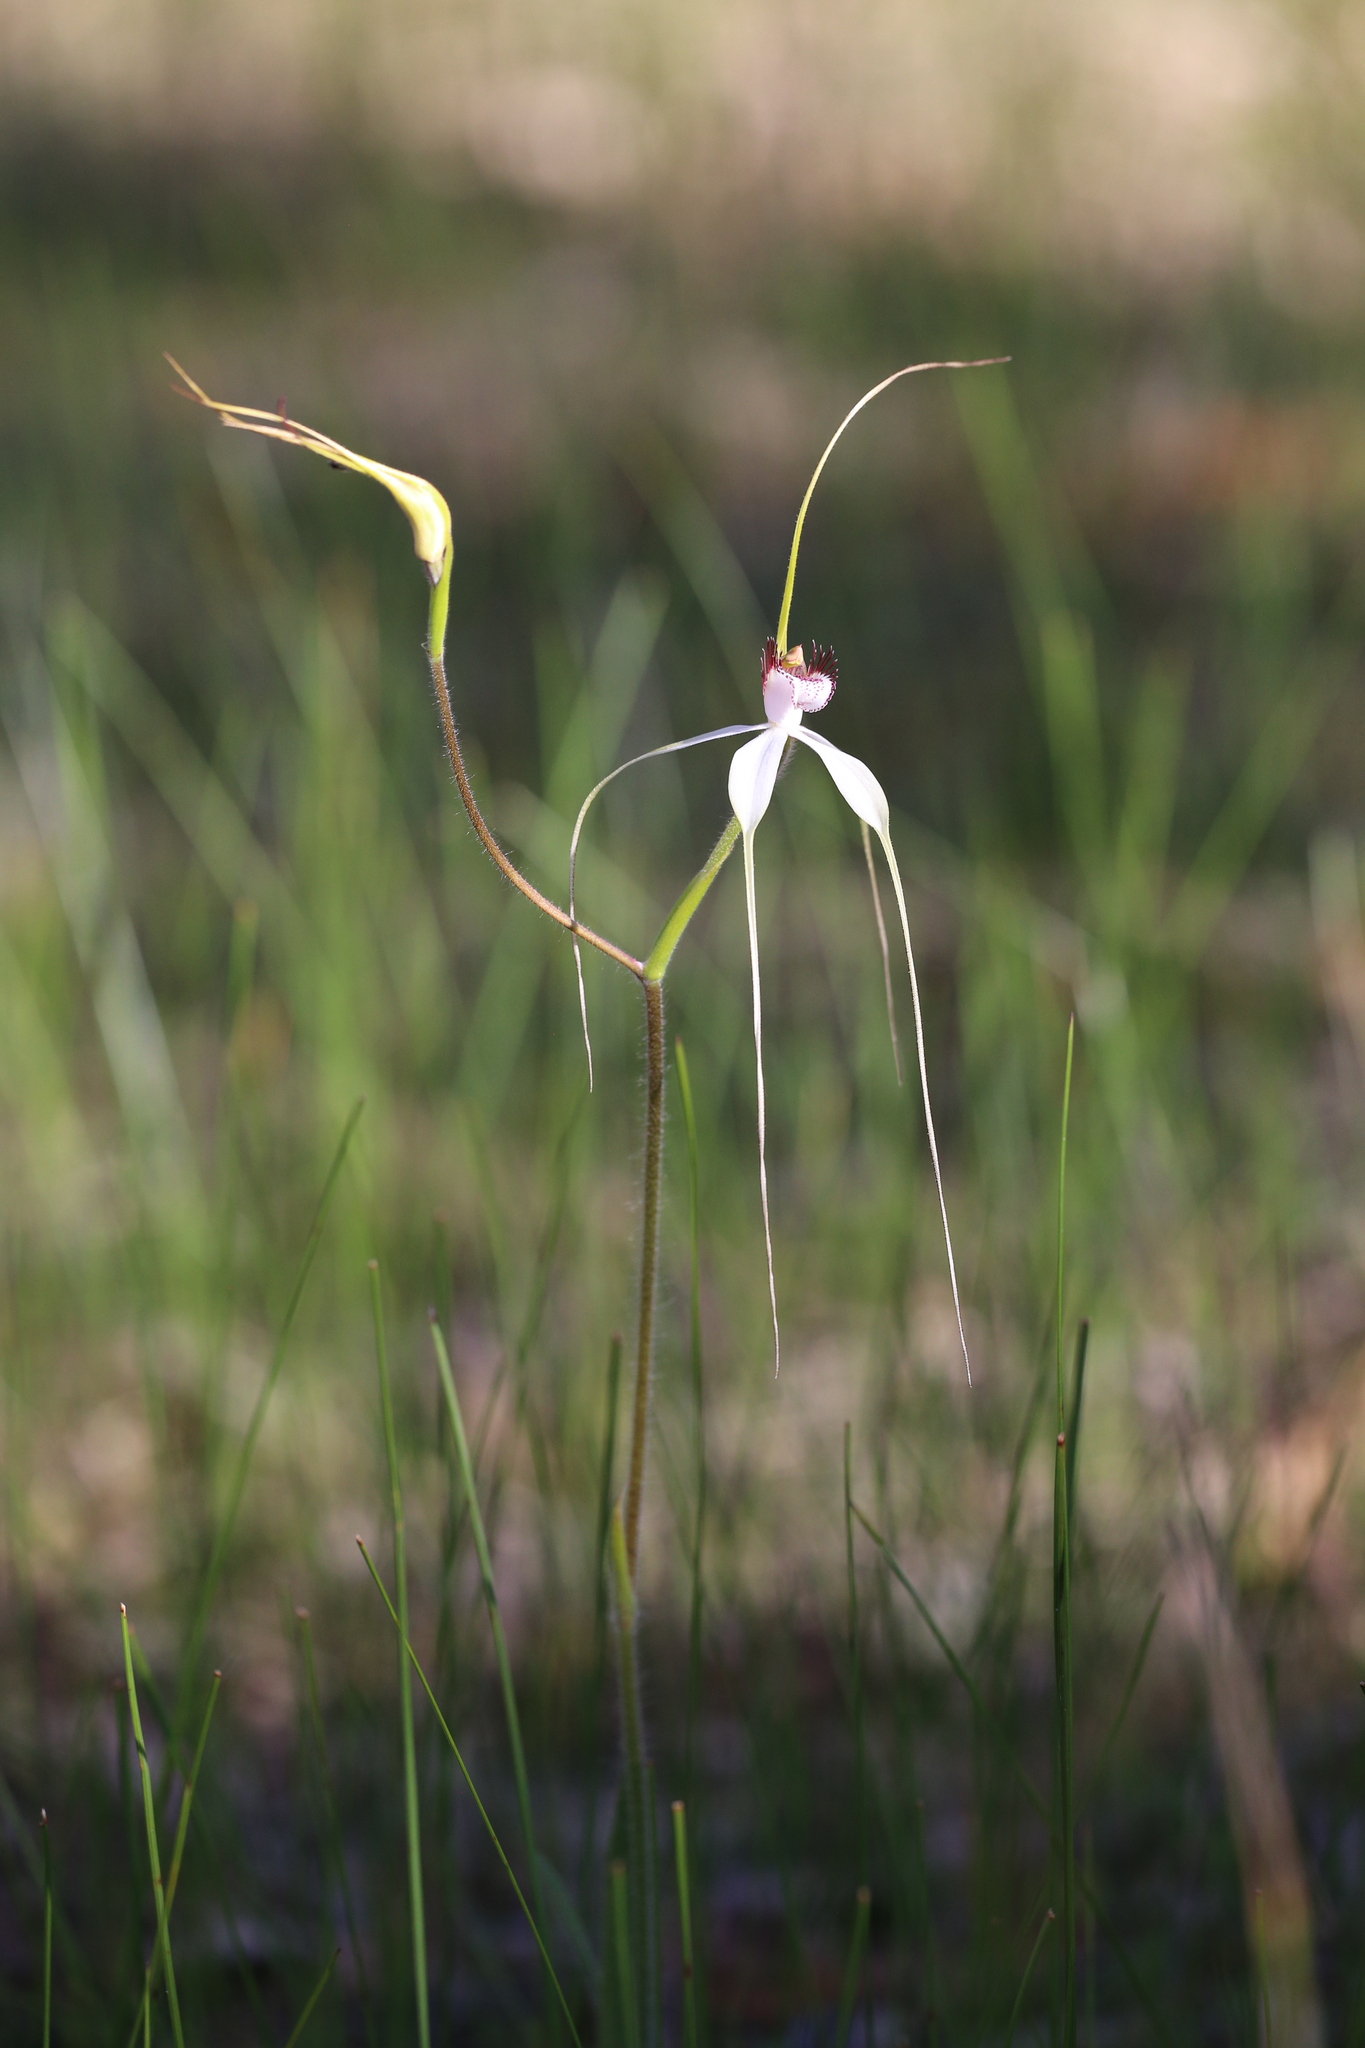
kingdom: Plantae
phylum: Tracheophyta
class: Liliopsida
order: Asparagales
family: Orchidaceae
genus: Caladenia
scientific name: Caladenia longicauda
